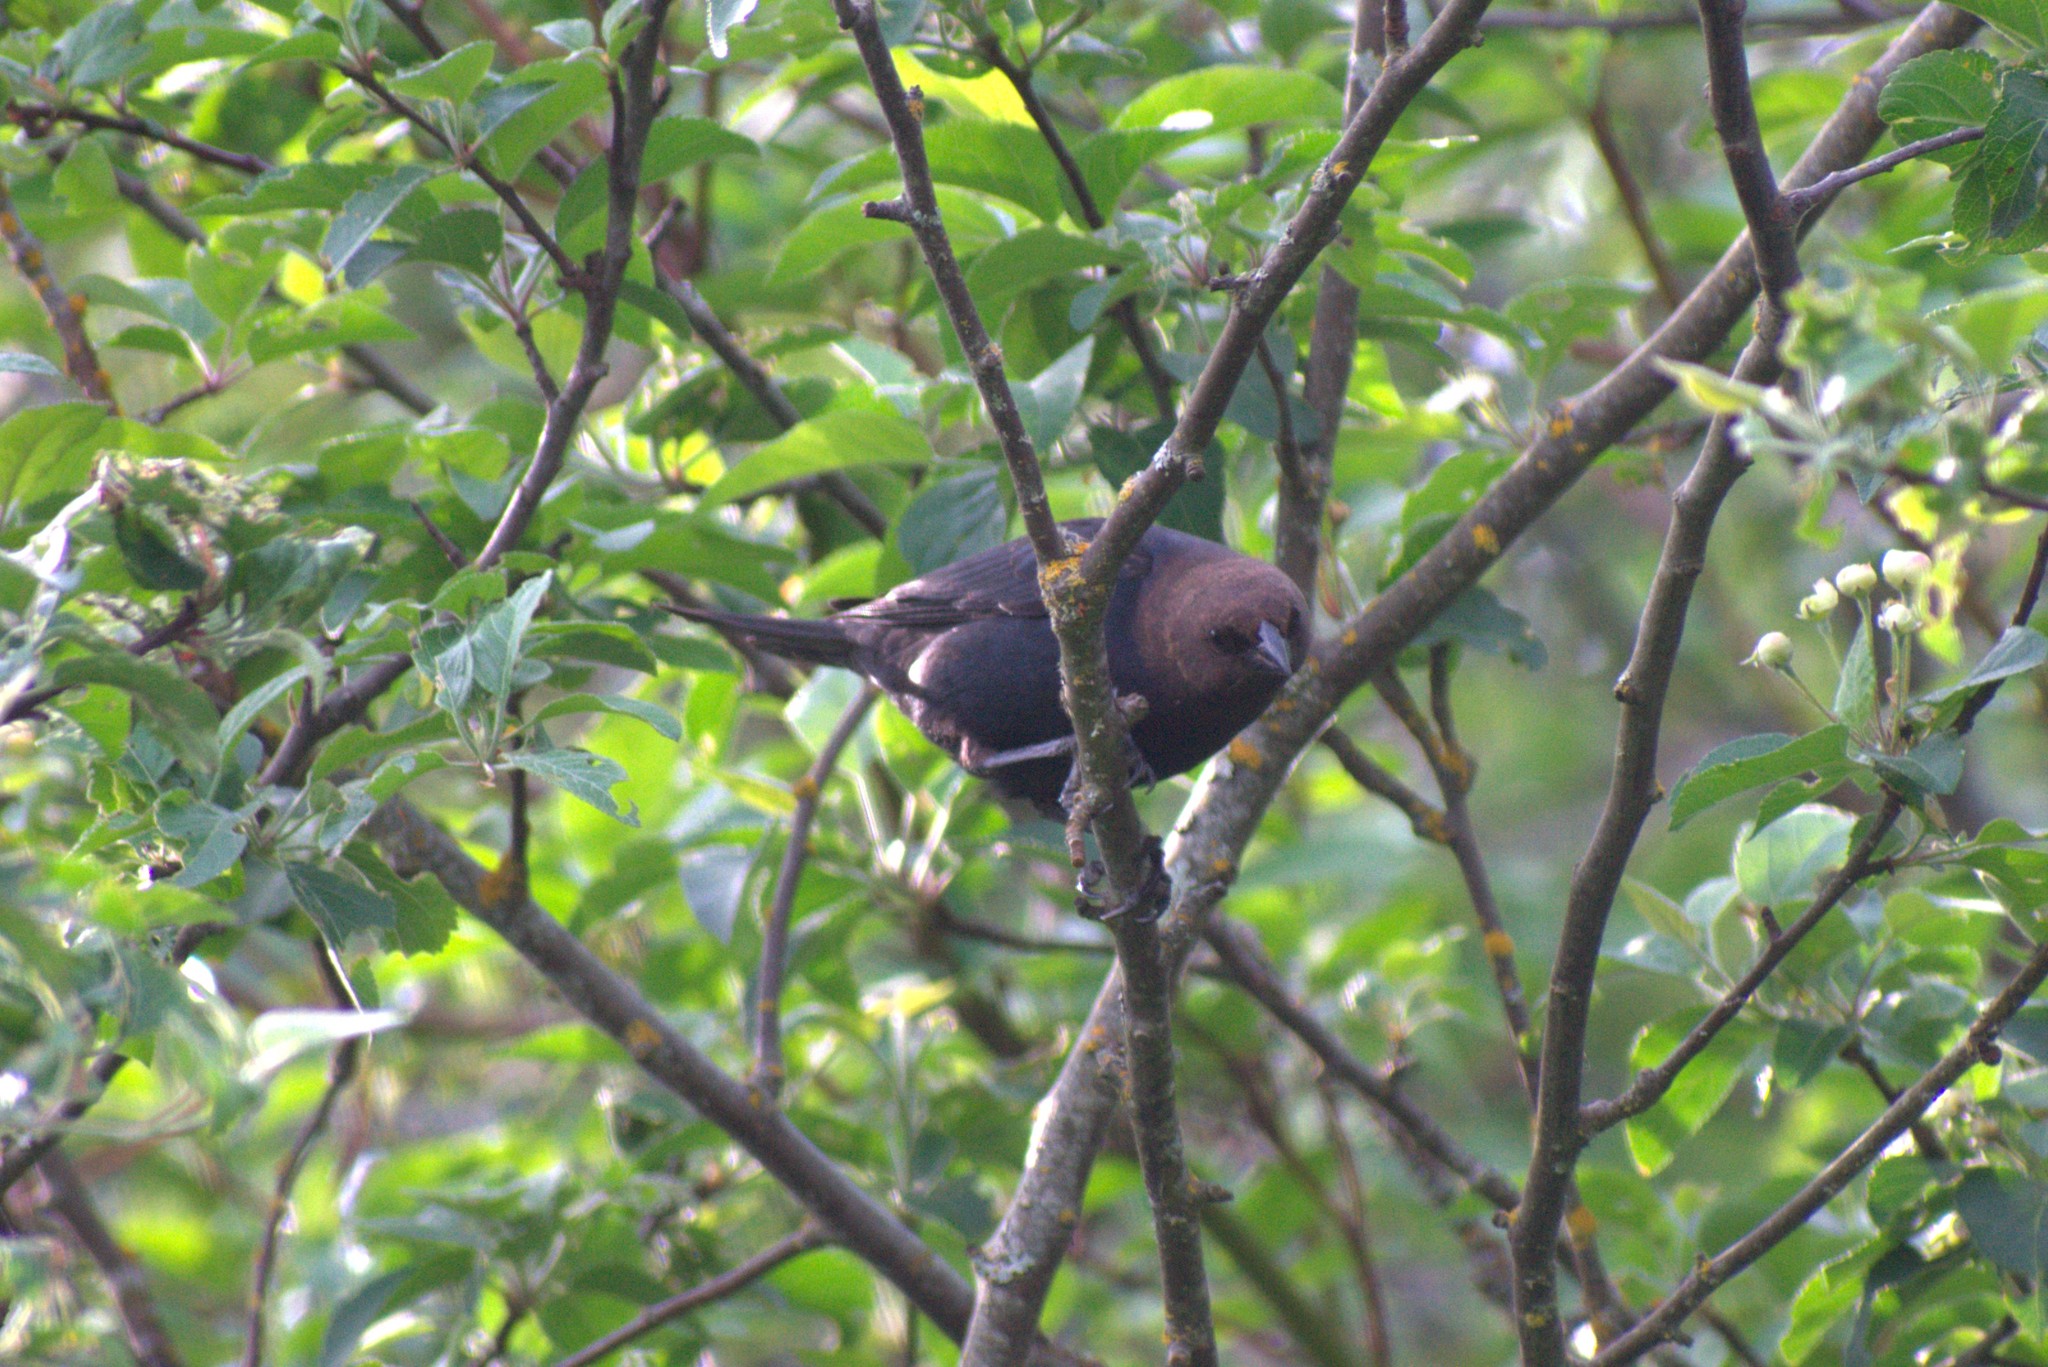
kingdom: Animalia
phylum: Chordata
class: Aves
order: Passeriformes
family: Icteridae
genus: Molothrus
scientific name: Molothrus ater
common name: Brown-headed cowbird
